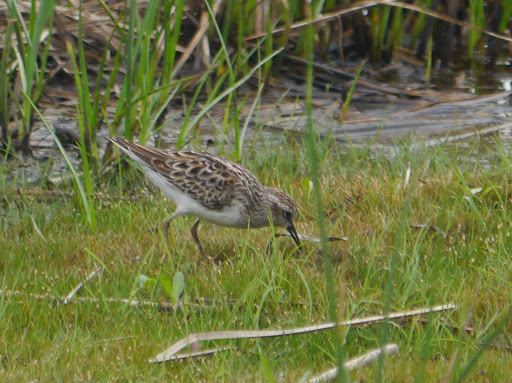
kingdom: Animalia
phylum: Chordata
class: Aves
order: Charadriiformes
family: Scolopacidae
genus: Calidris
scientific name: Calidris minutilla
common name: Least sandpiper
